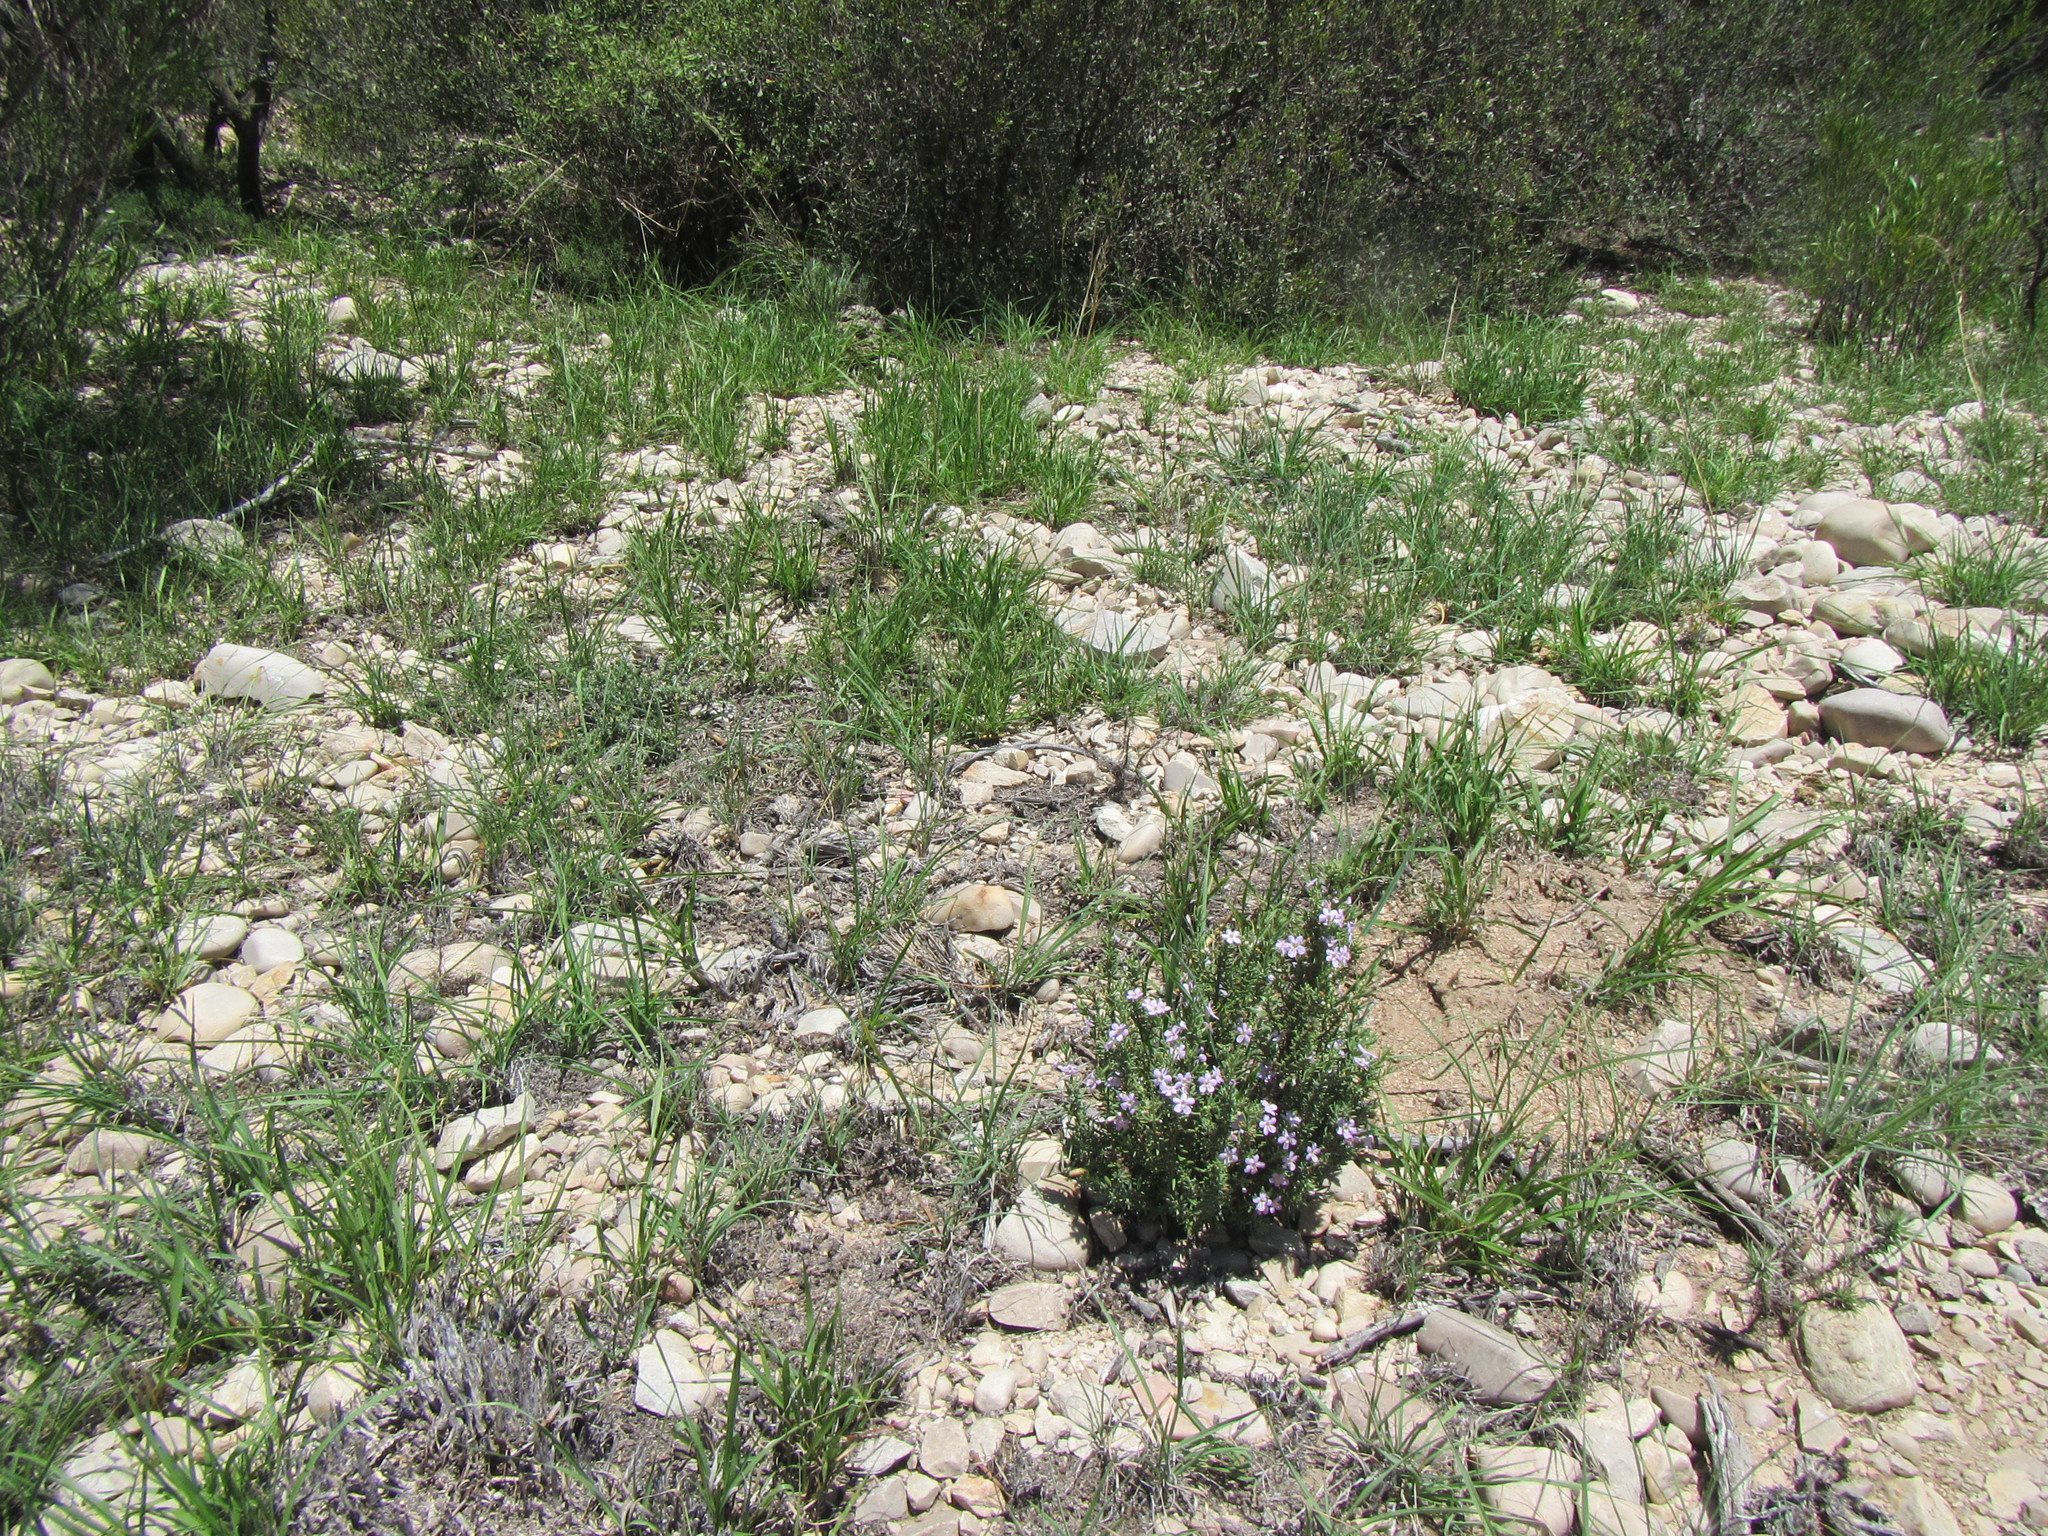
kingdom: Plantae
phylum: Tracheophyta
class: Magnoliopsida
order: Lamiales
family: Scrophulariaceae
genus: Chaenostoma
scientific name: Chaenostoma revolutum
